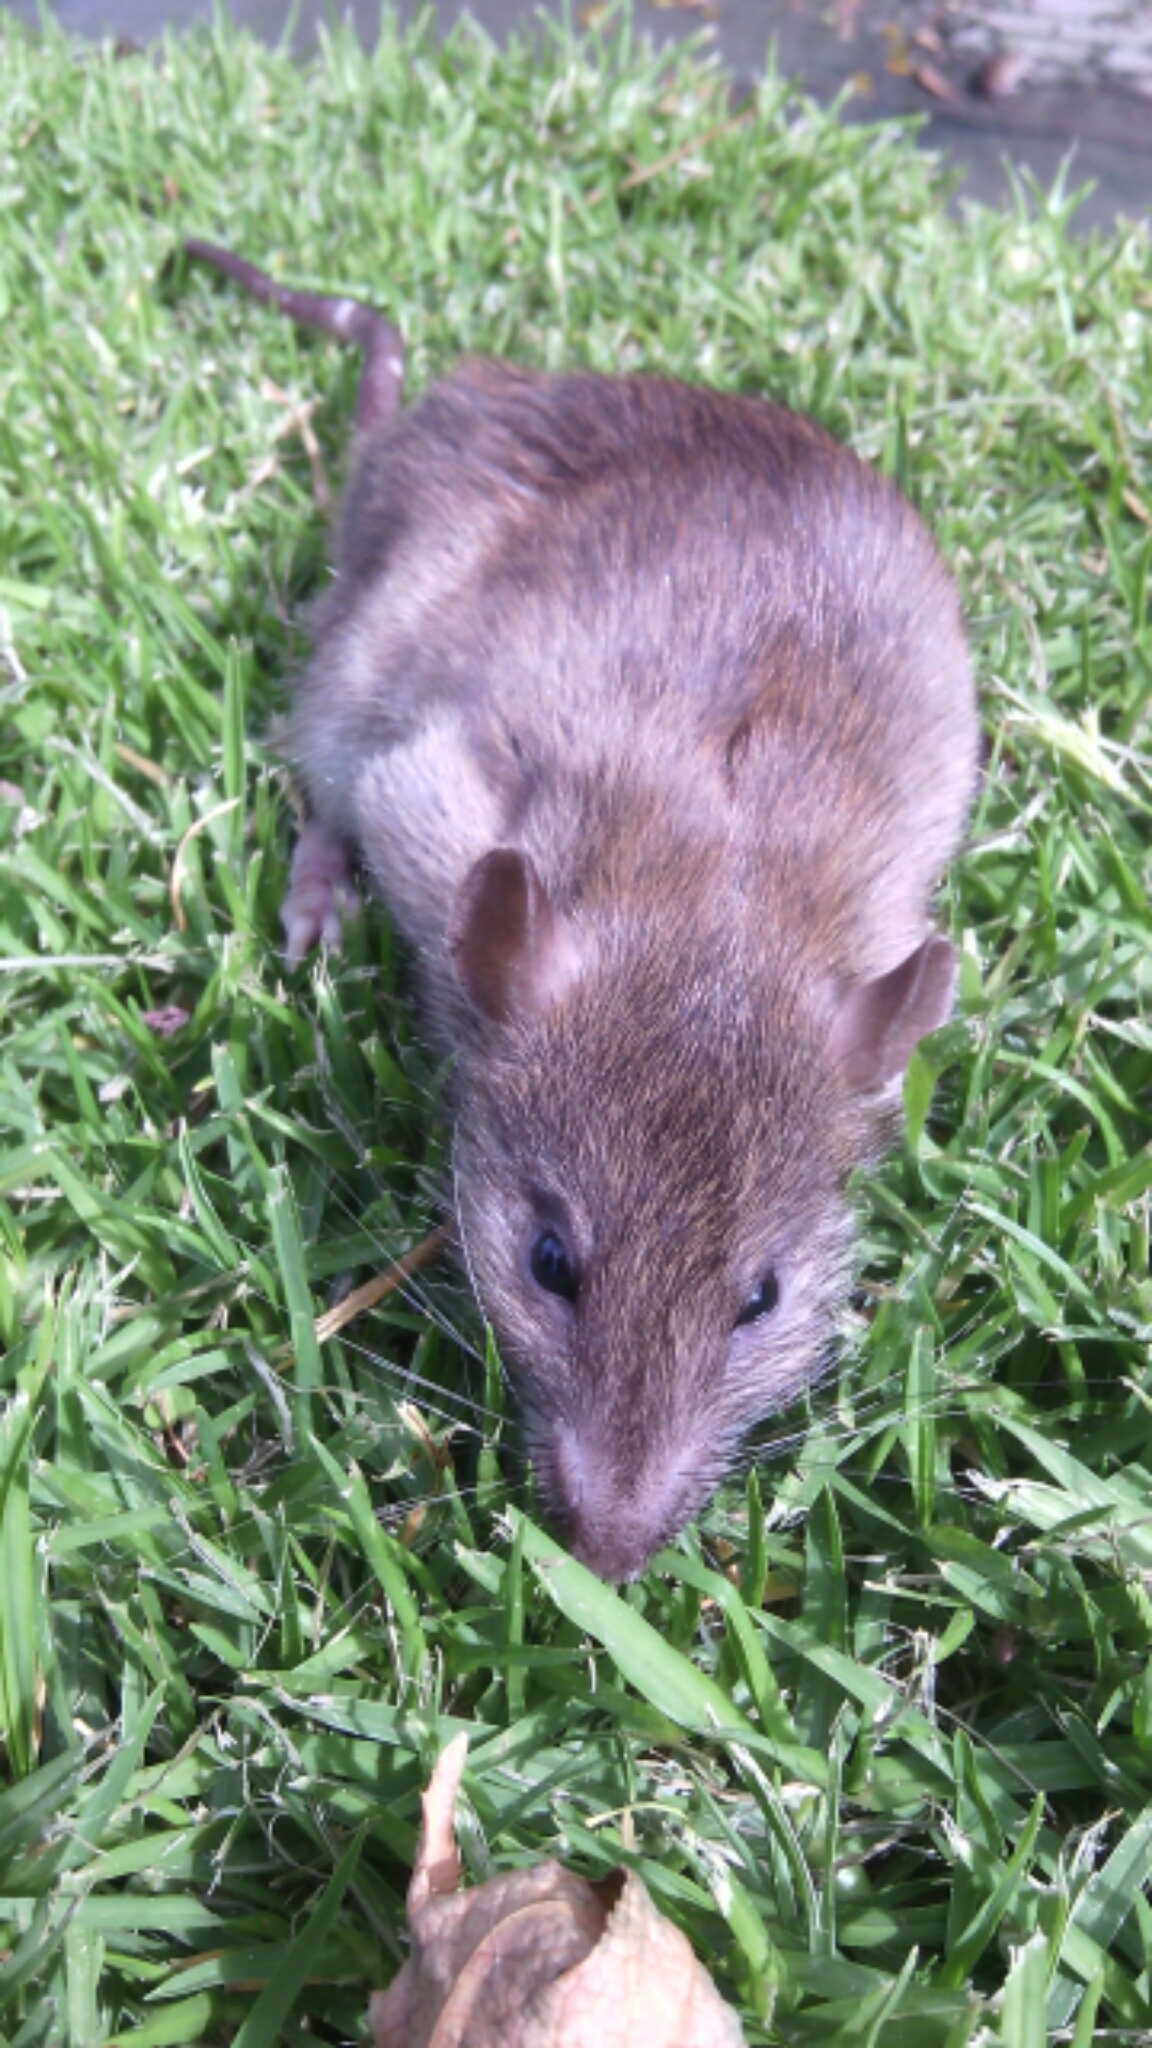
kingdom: Animalia
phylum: Chordata
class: Mammalia
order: Rodentia
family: Muridae
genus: Rattus
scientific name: Rattus norvegicus
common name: Brown rat
